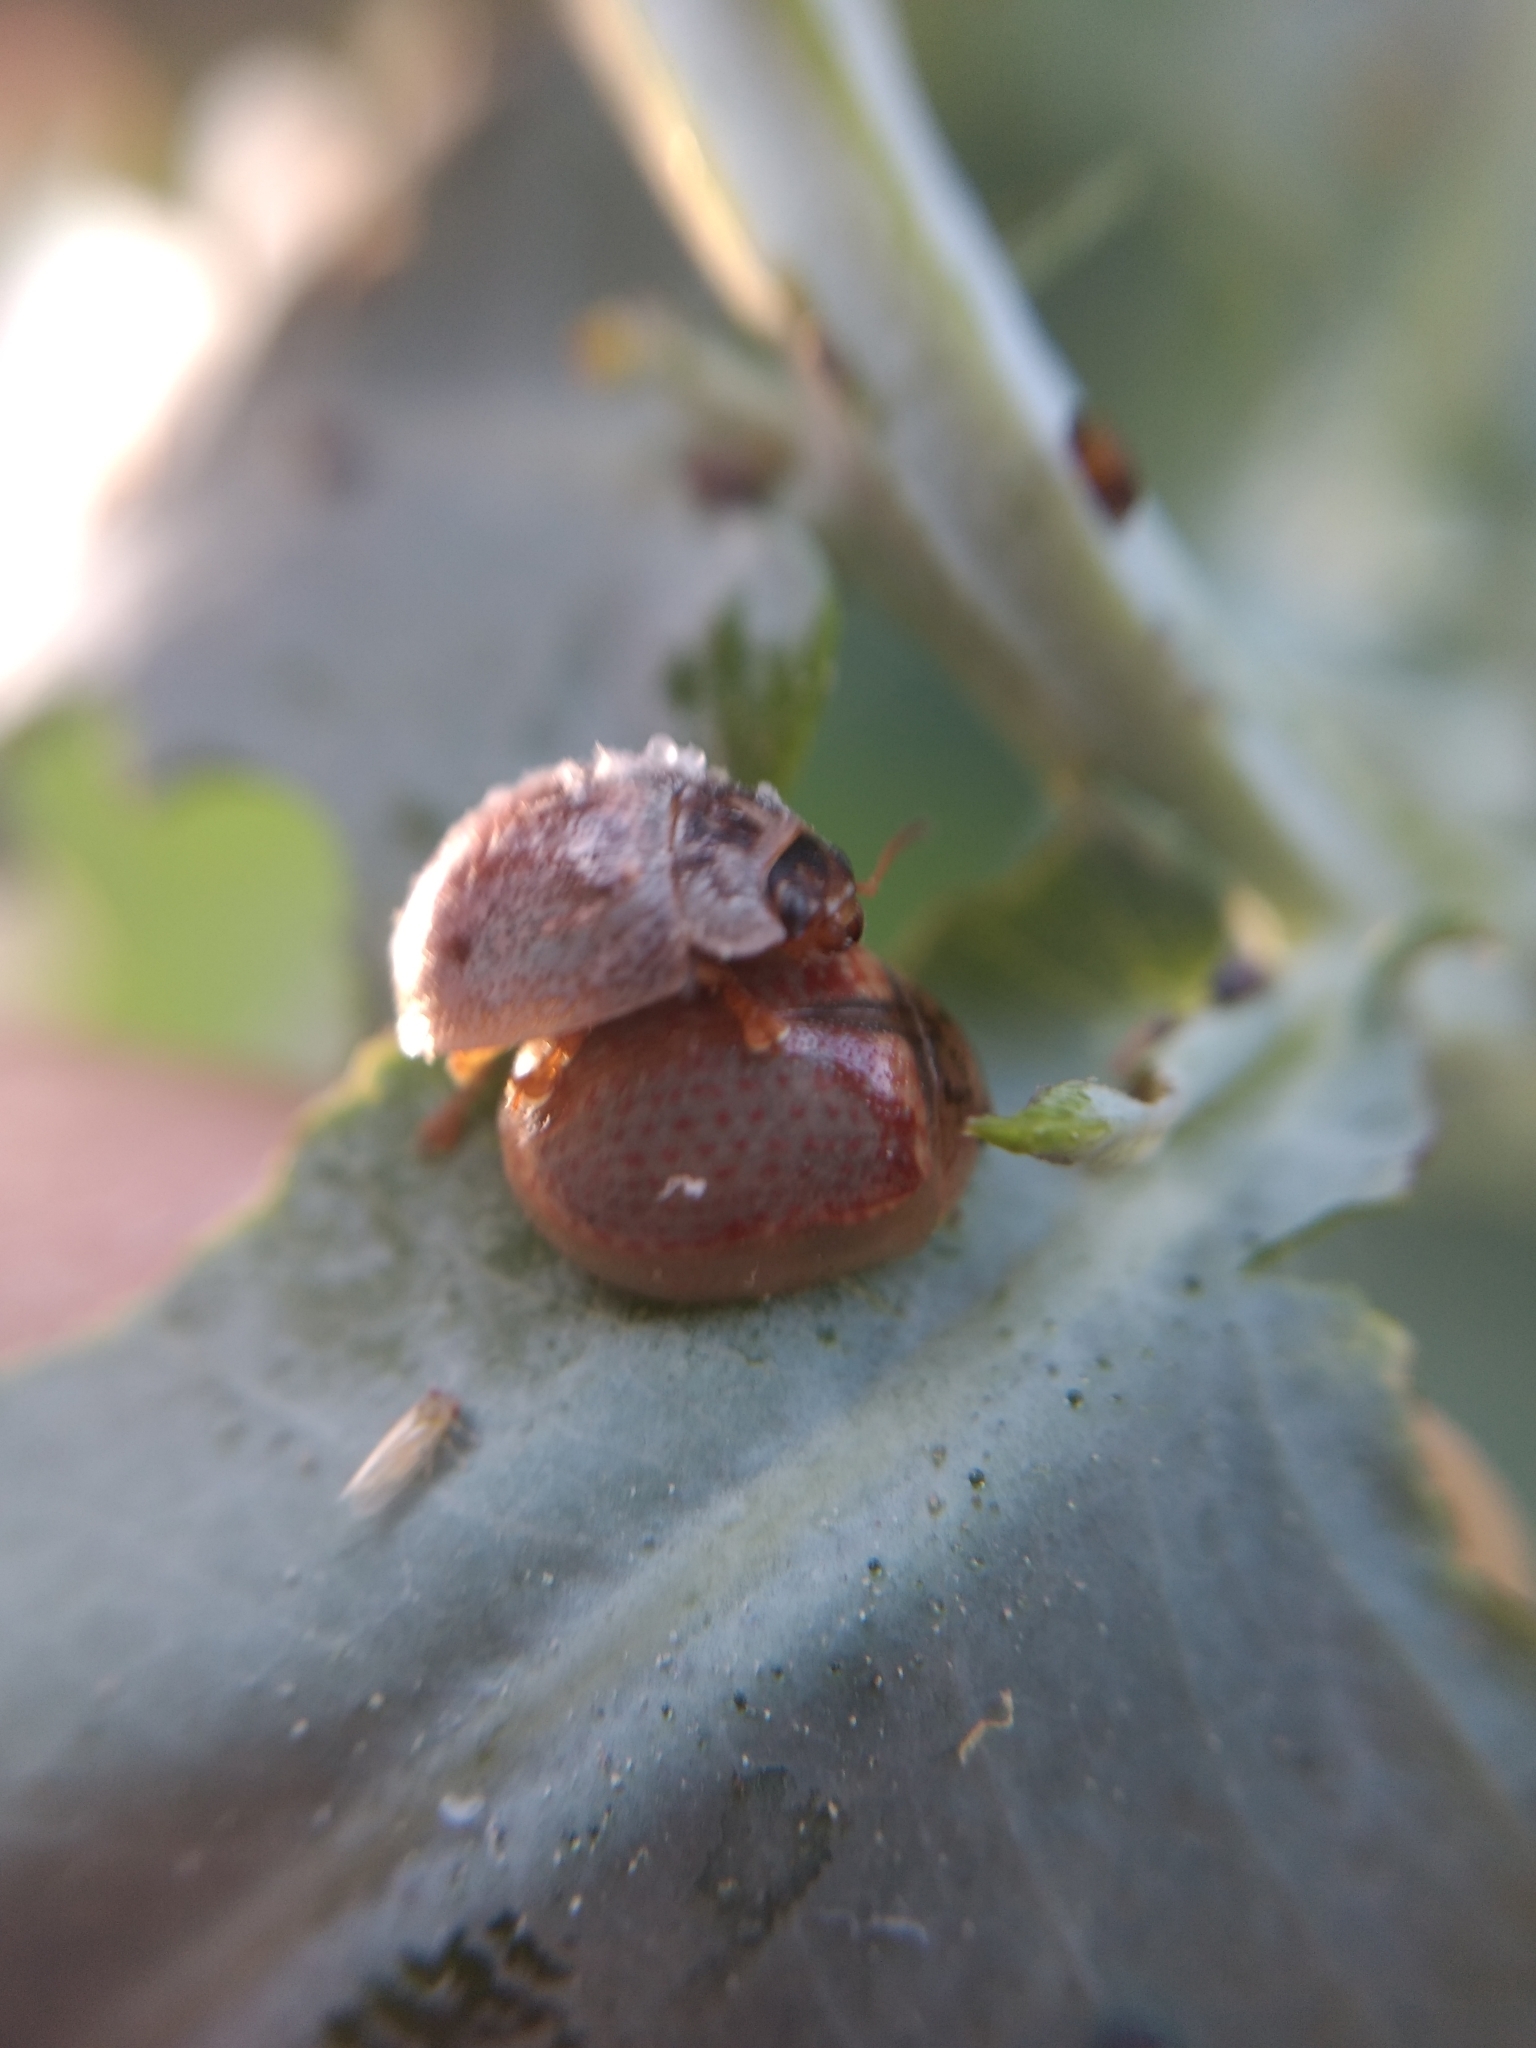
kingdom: Animalia
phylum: Arthropoda
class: Insecta
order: Coleoptera
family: Chrysomelidae
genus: Paropsisterna
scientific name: Paropsisterna m-fuscum
